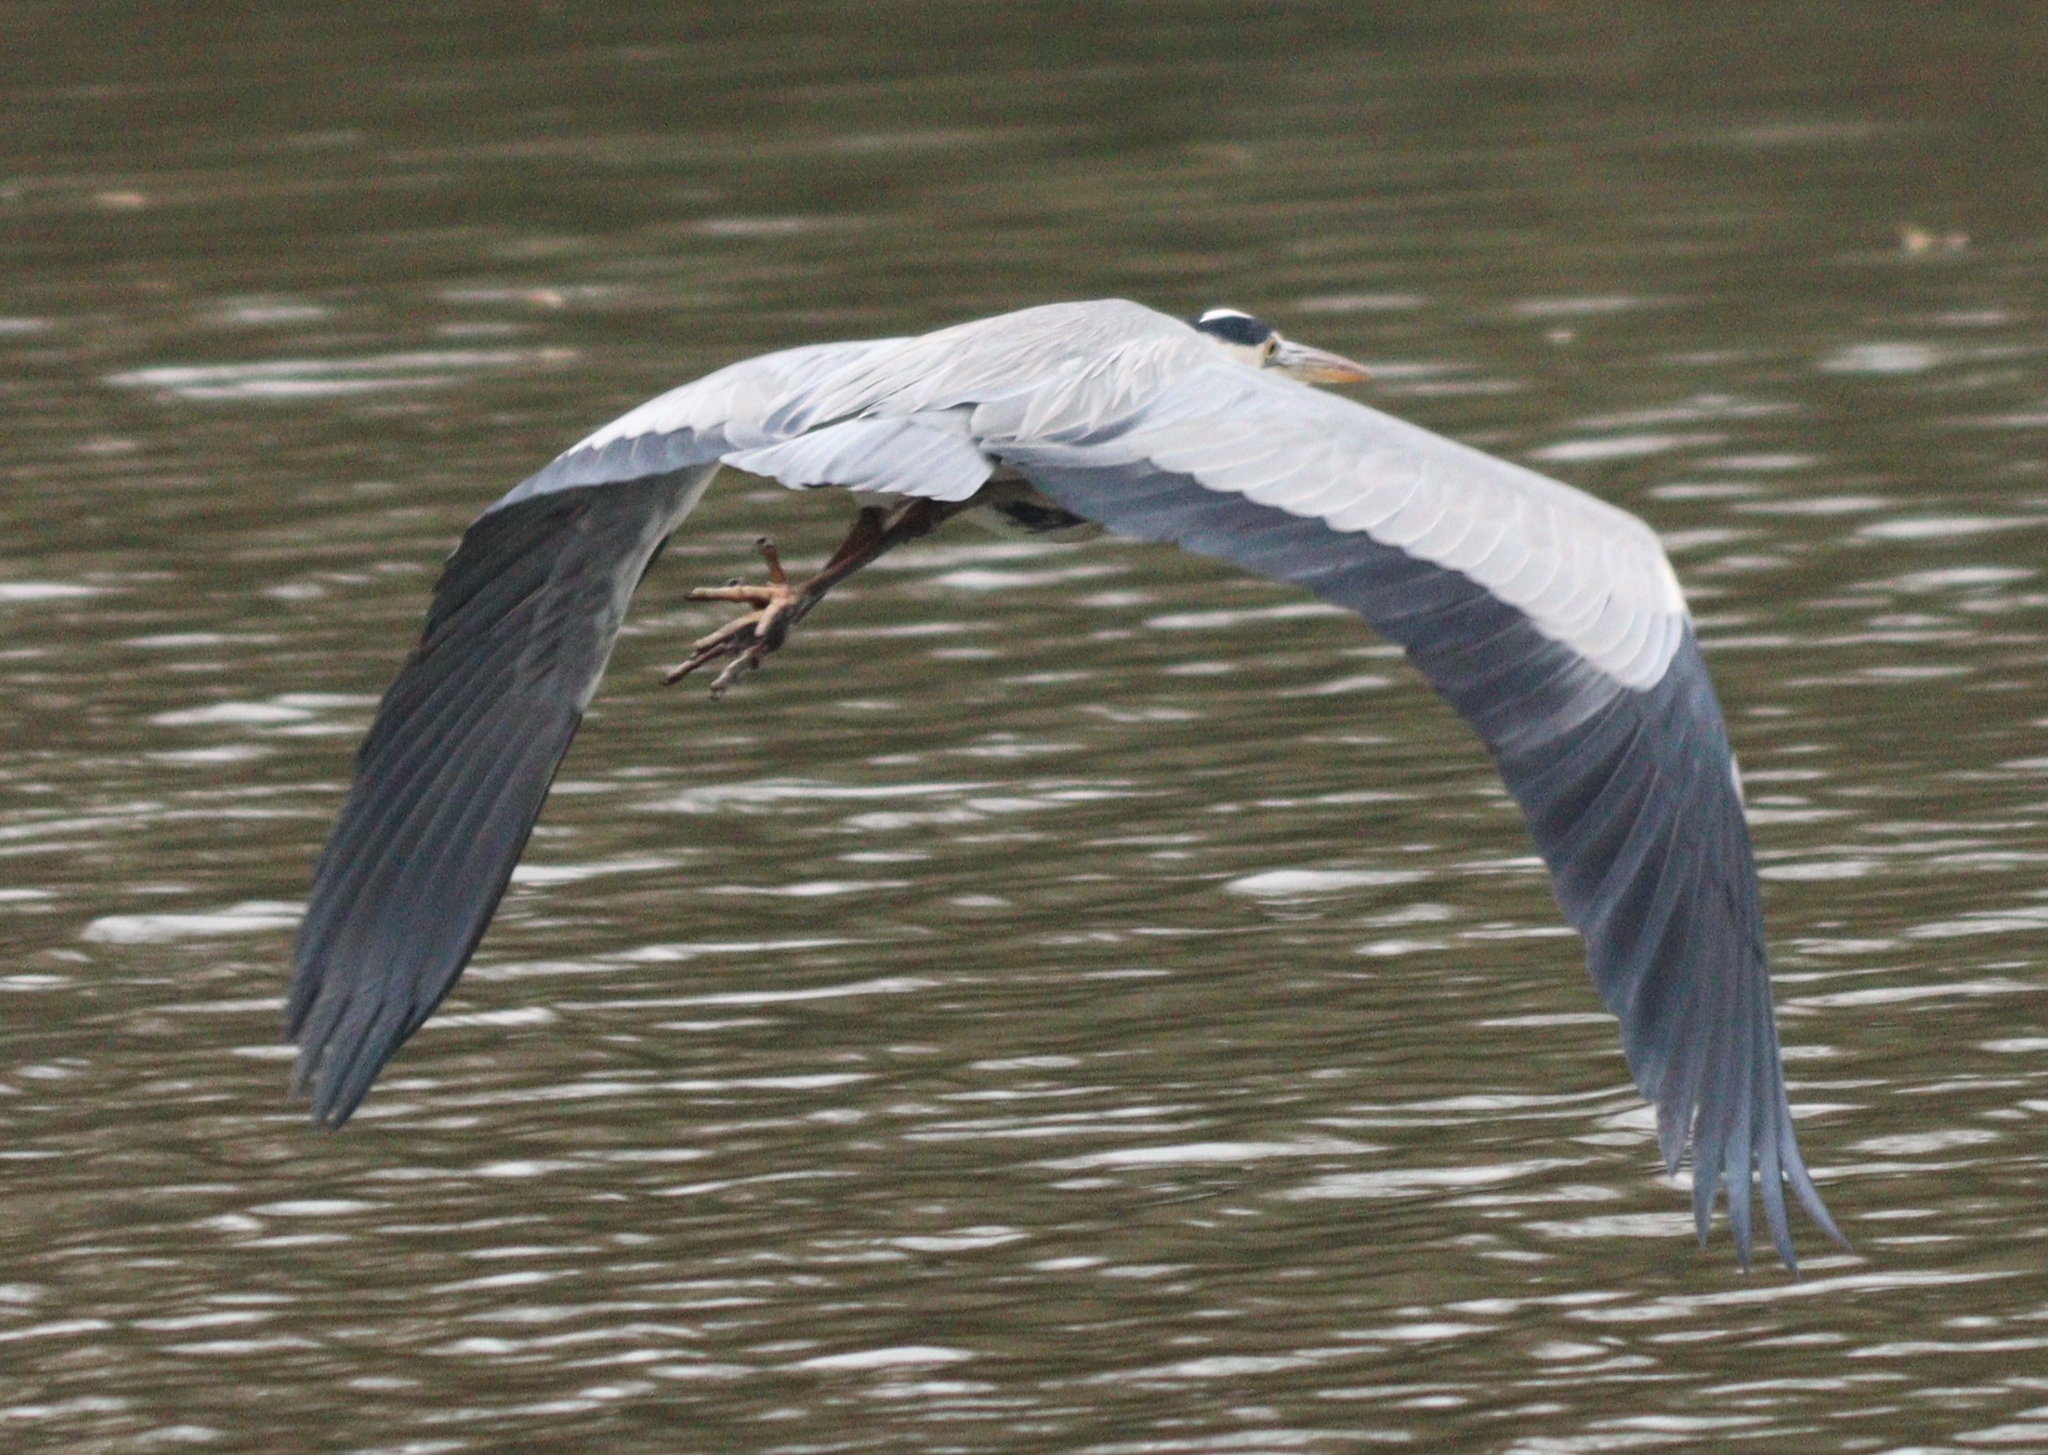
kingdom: Animalia
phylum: Chordata
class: Aves
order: Pelecaniformes
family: Ardeidae
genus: Ardea
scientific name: Ardea cinerea
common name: Grey heron
